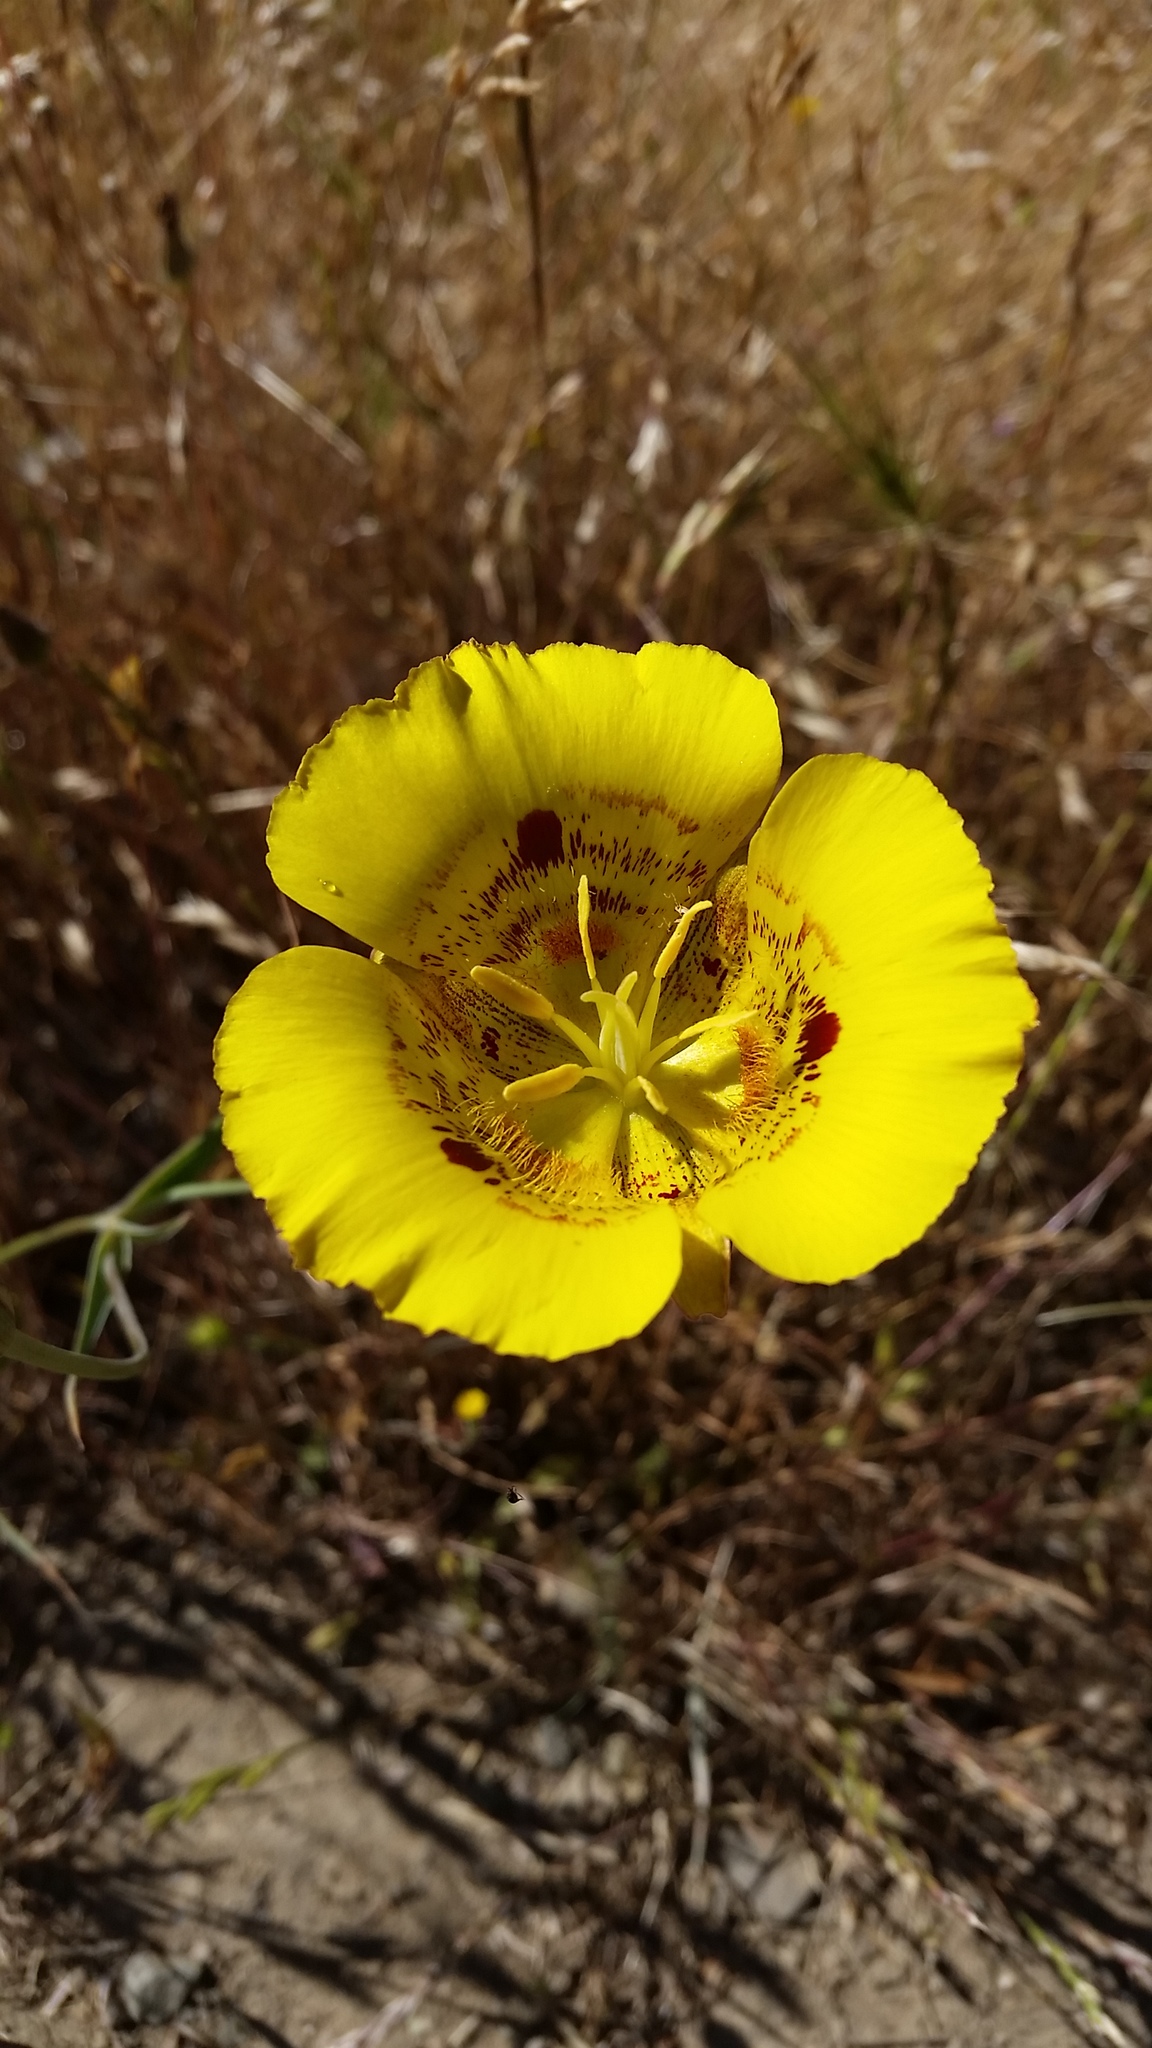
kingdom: Plantae
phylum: Tracheophyta
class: Liliopsida
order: Liliales
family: Liliaceae
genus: Calochortus
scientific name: Calochortus luteus
